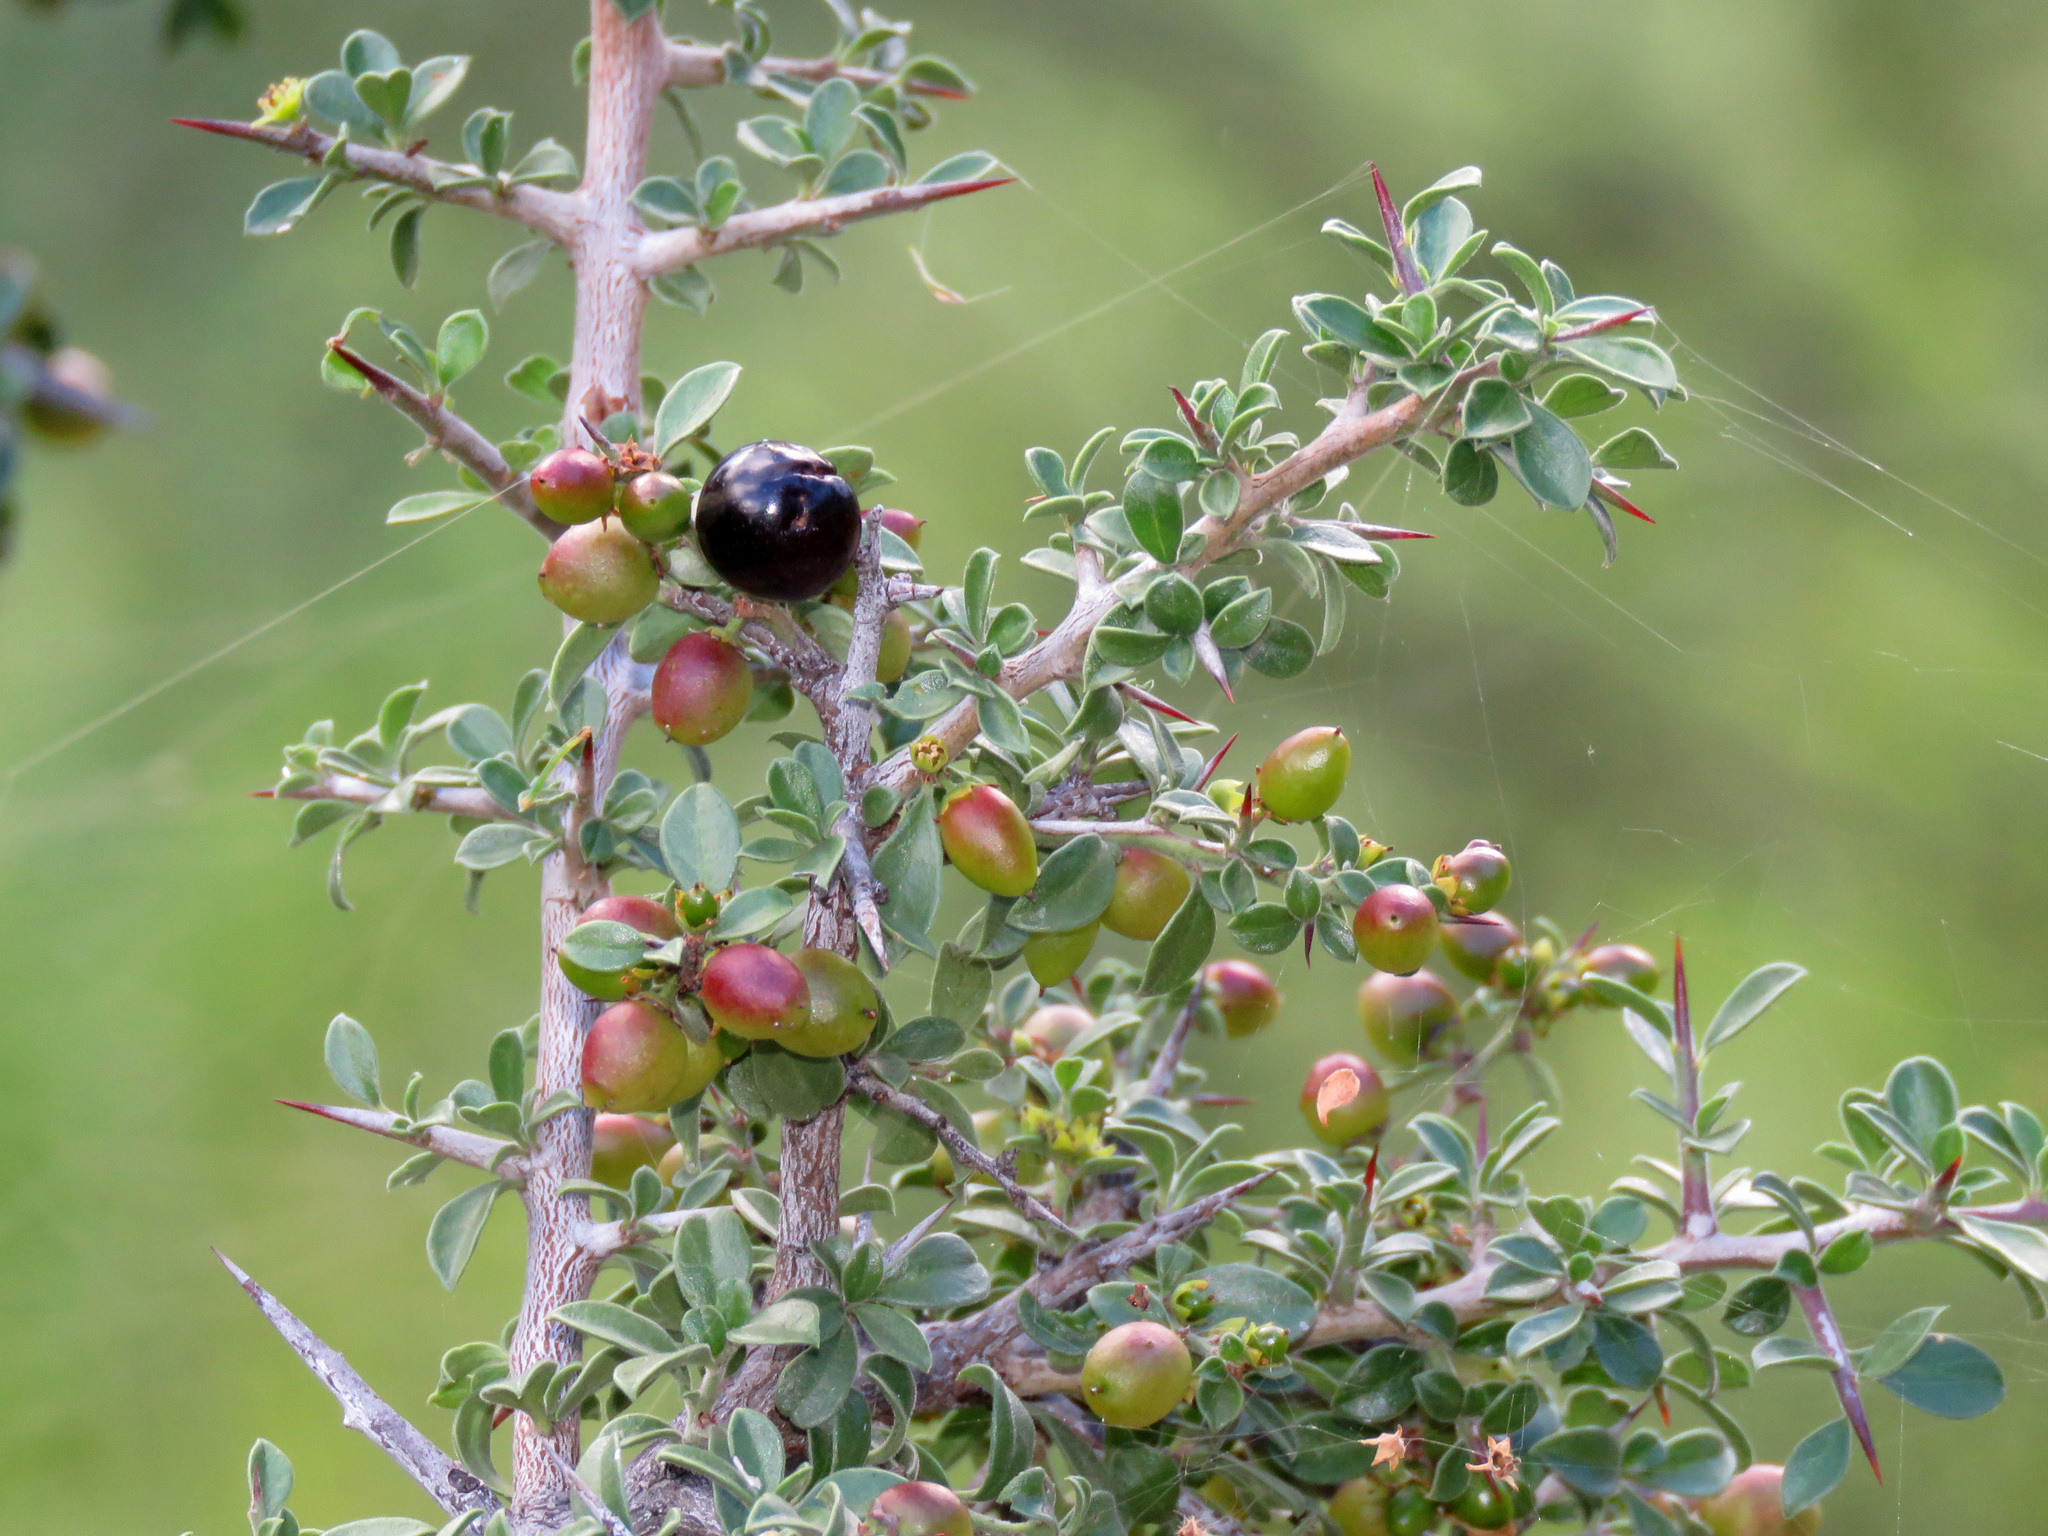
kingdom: Plantae
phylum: Tracheophyta
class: Magnoliopsida
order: Rosales
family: Rhamnaceae
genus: Sarcomphalus
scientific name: Sarcomphalus obtusifolius
